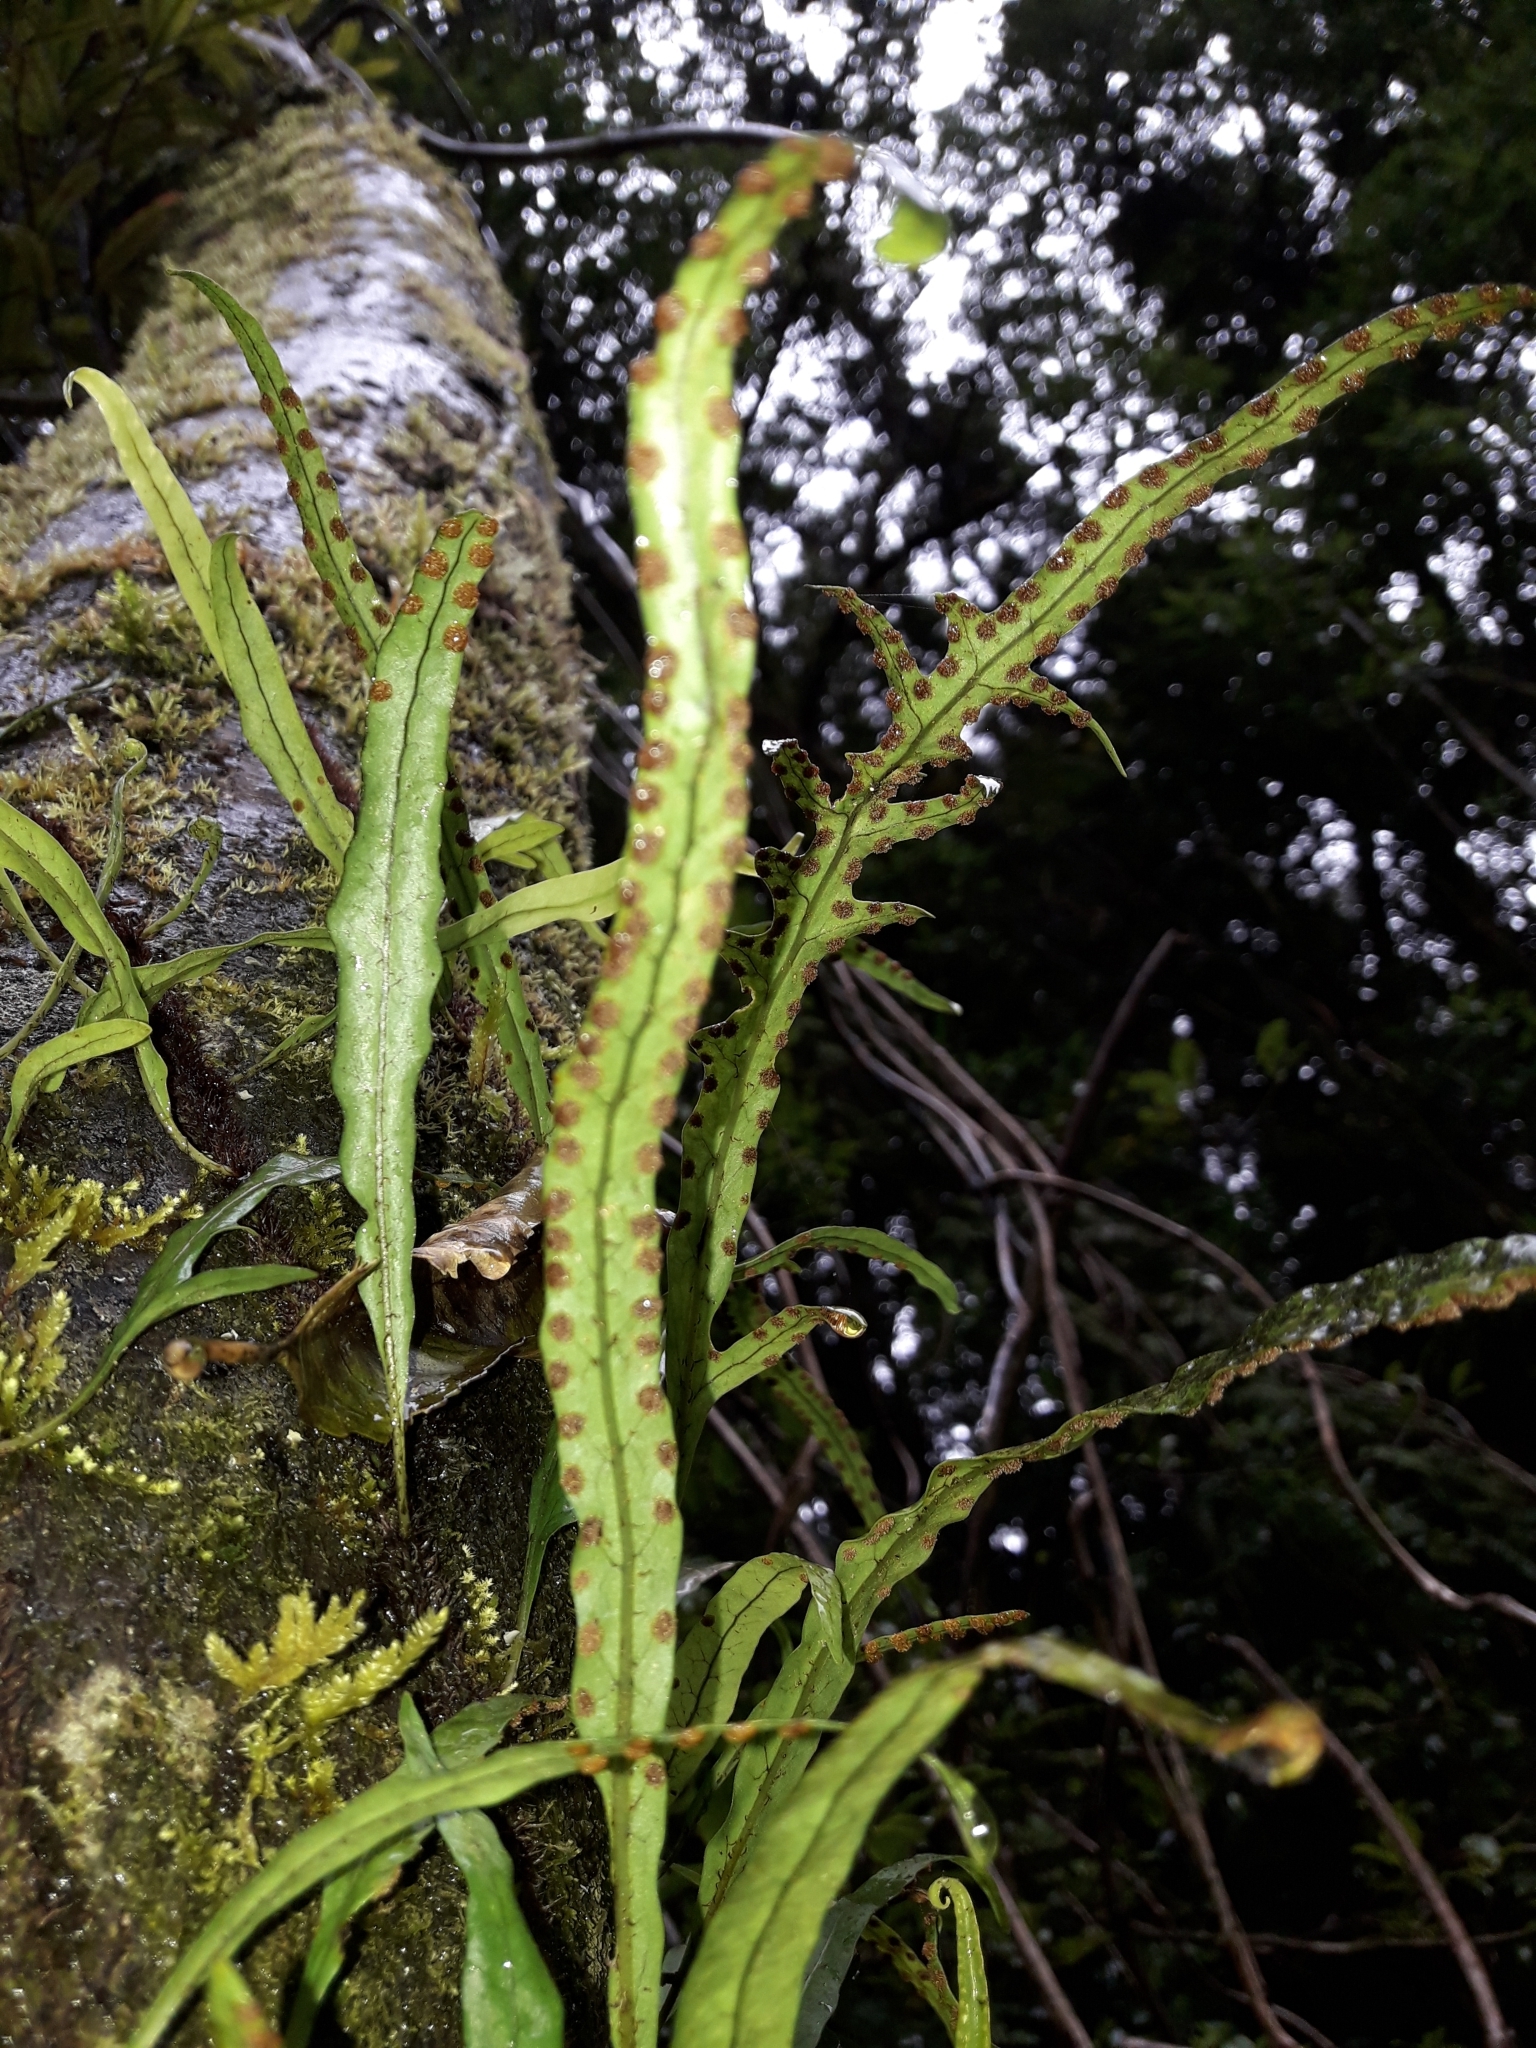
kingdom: Plantae
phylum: Tracheophyta
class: Polypodiopsida
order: Polypodiales
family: Polypodiaceae
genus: Lecanopteris
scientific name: Lecanopteris scandens
